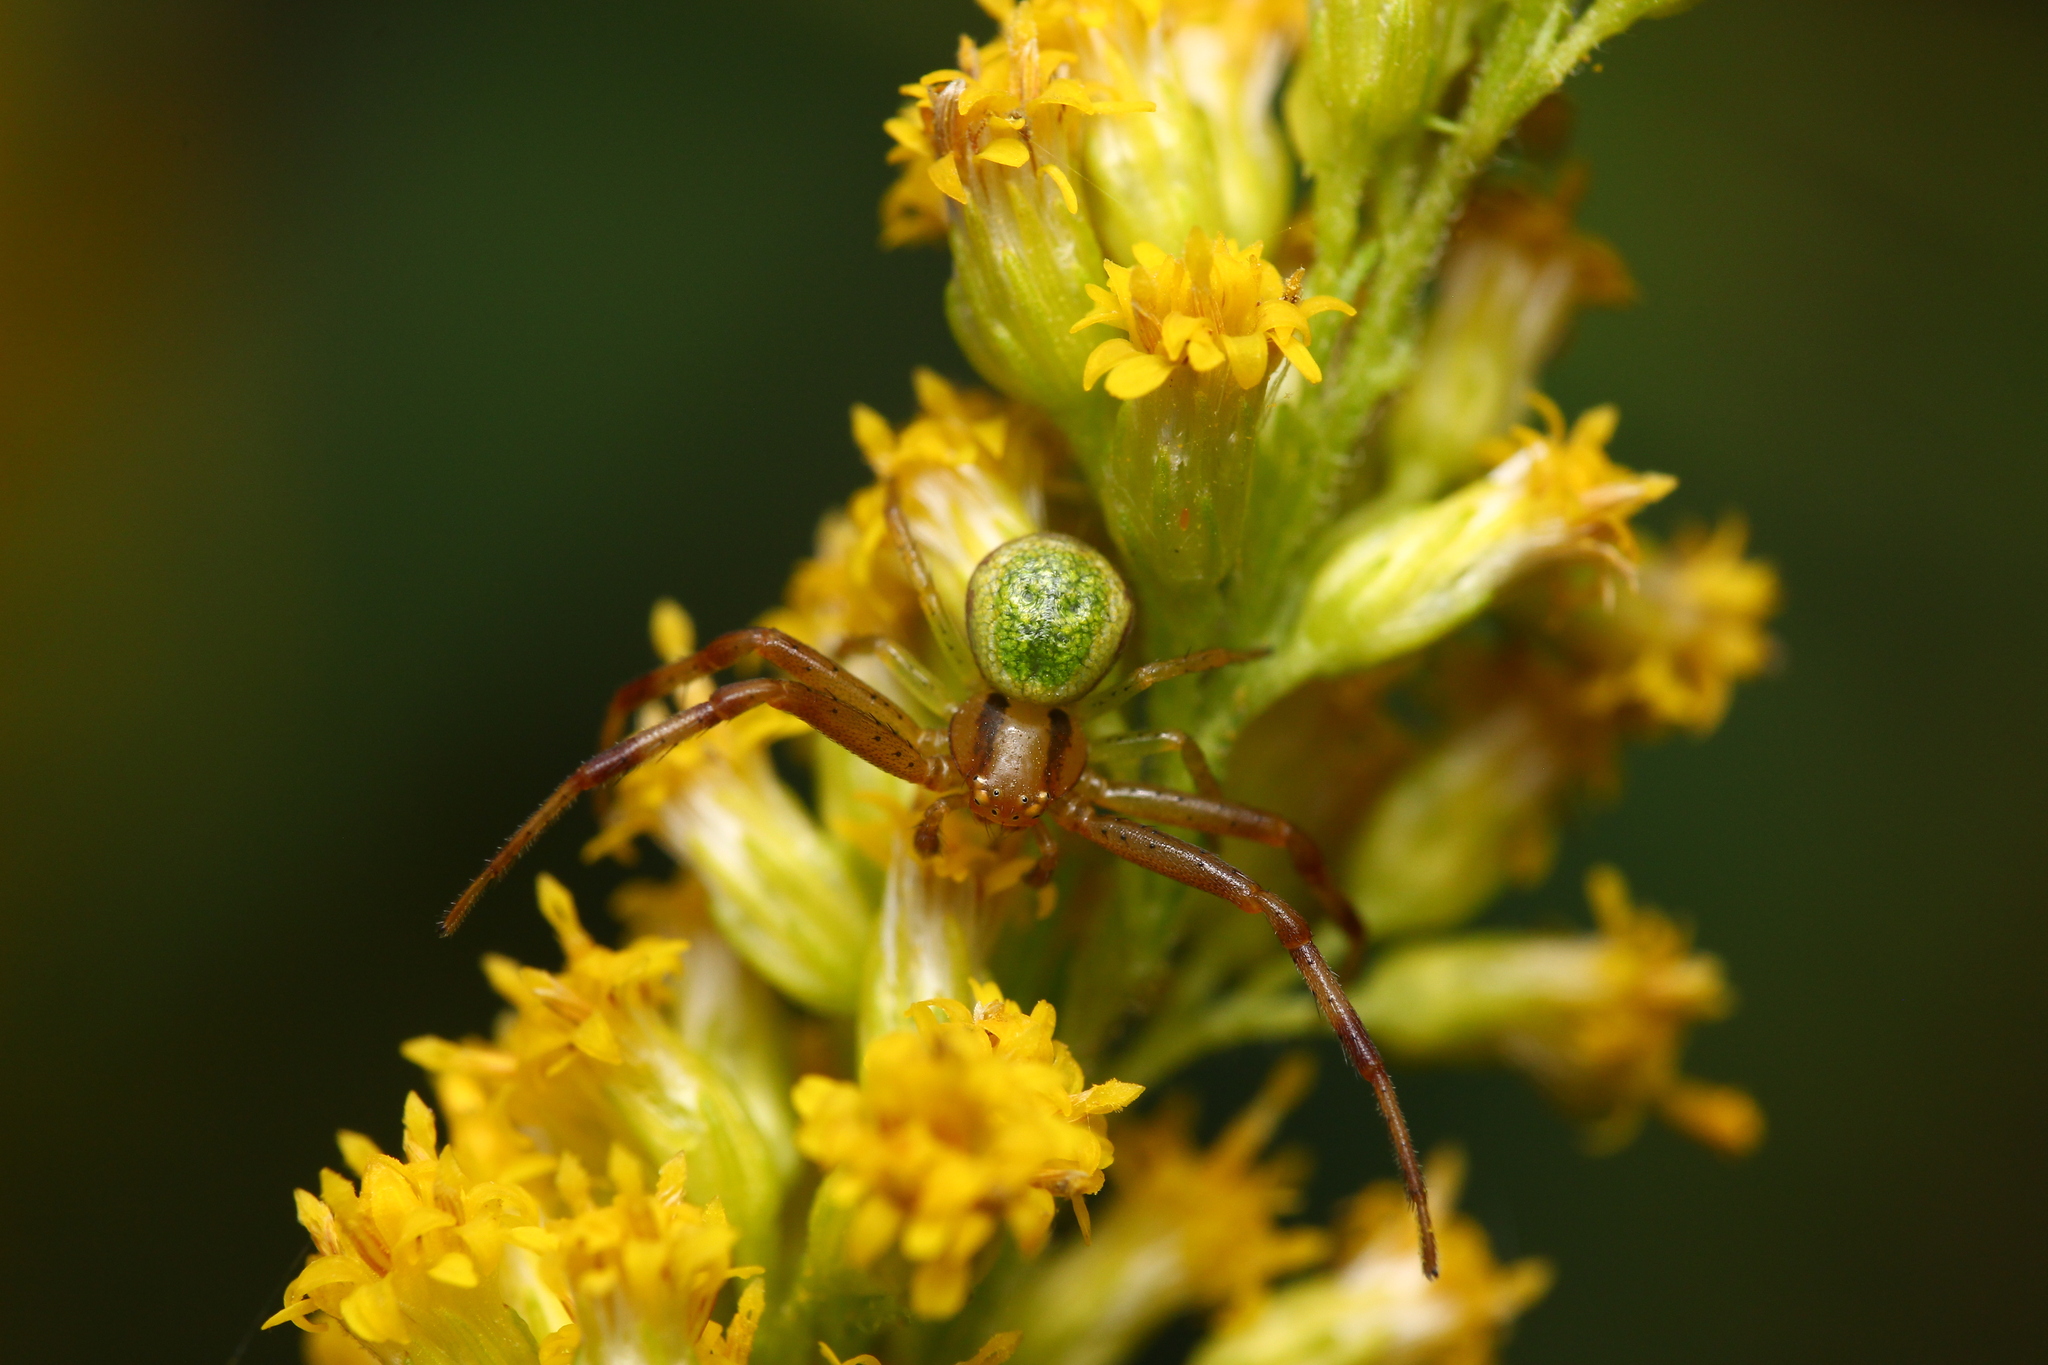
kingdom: Animalia
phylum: Arthropoda
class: Arachnida
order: Araneae
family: Thomisidae
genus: Ebrechtella
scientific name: Ebrechtella tricuspidata
